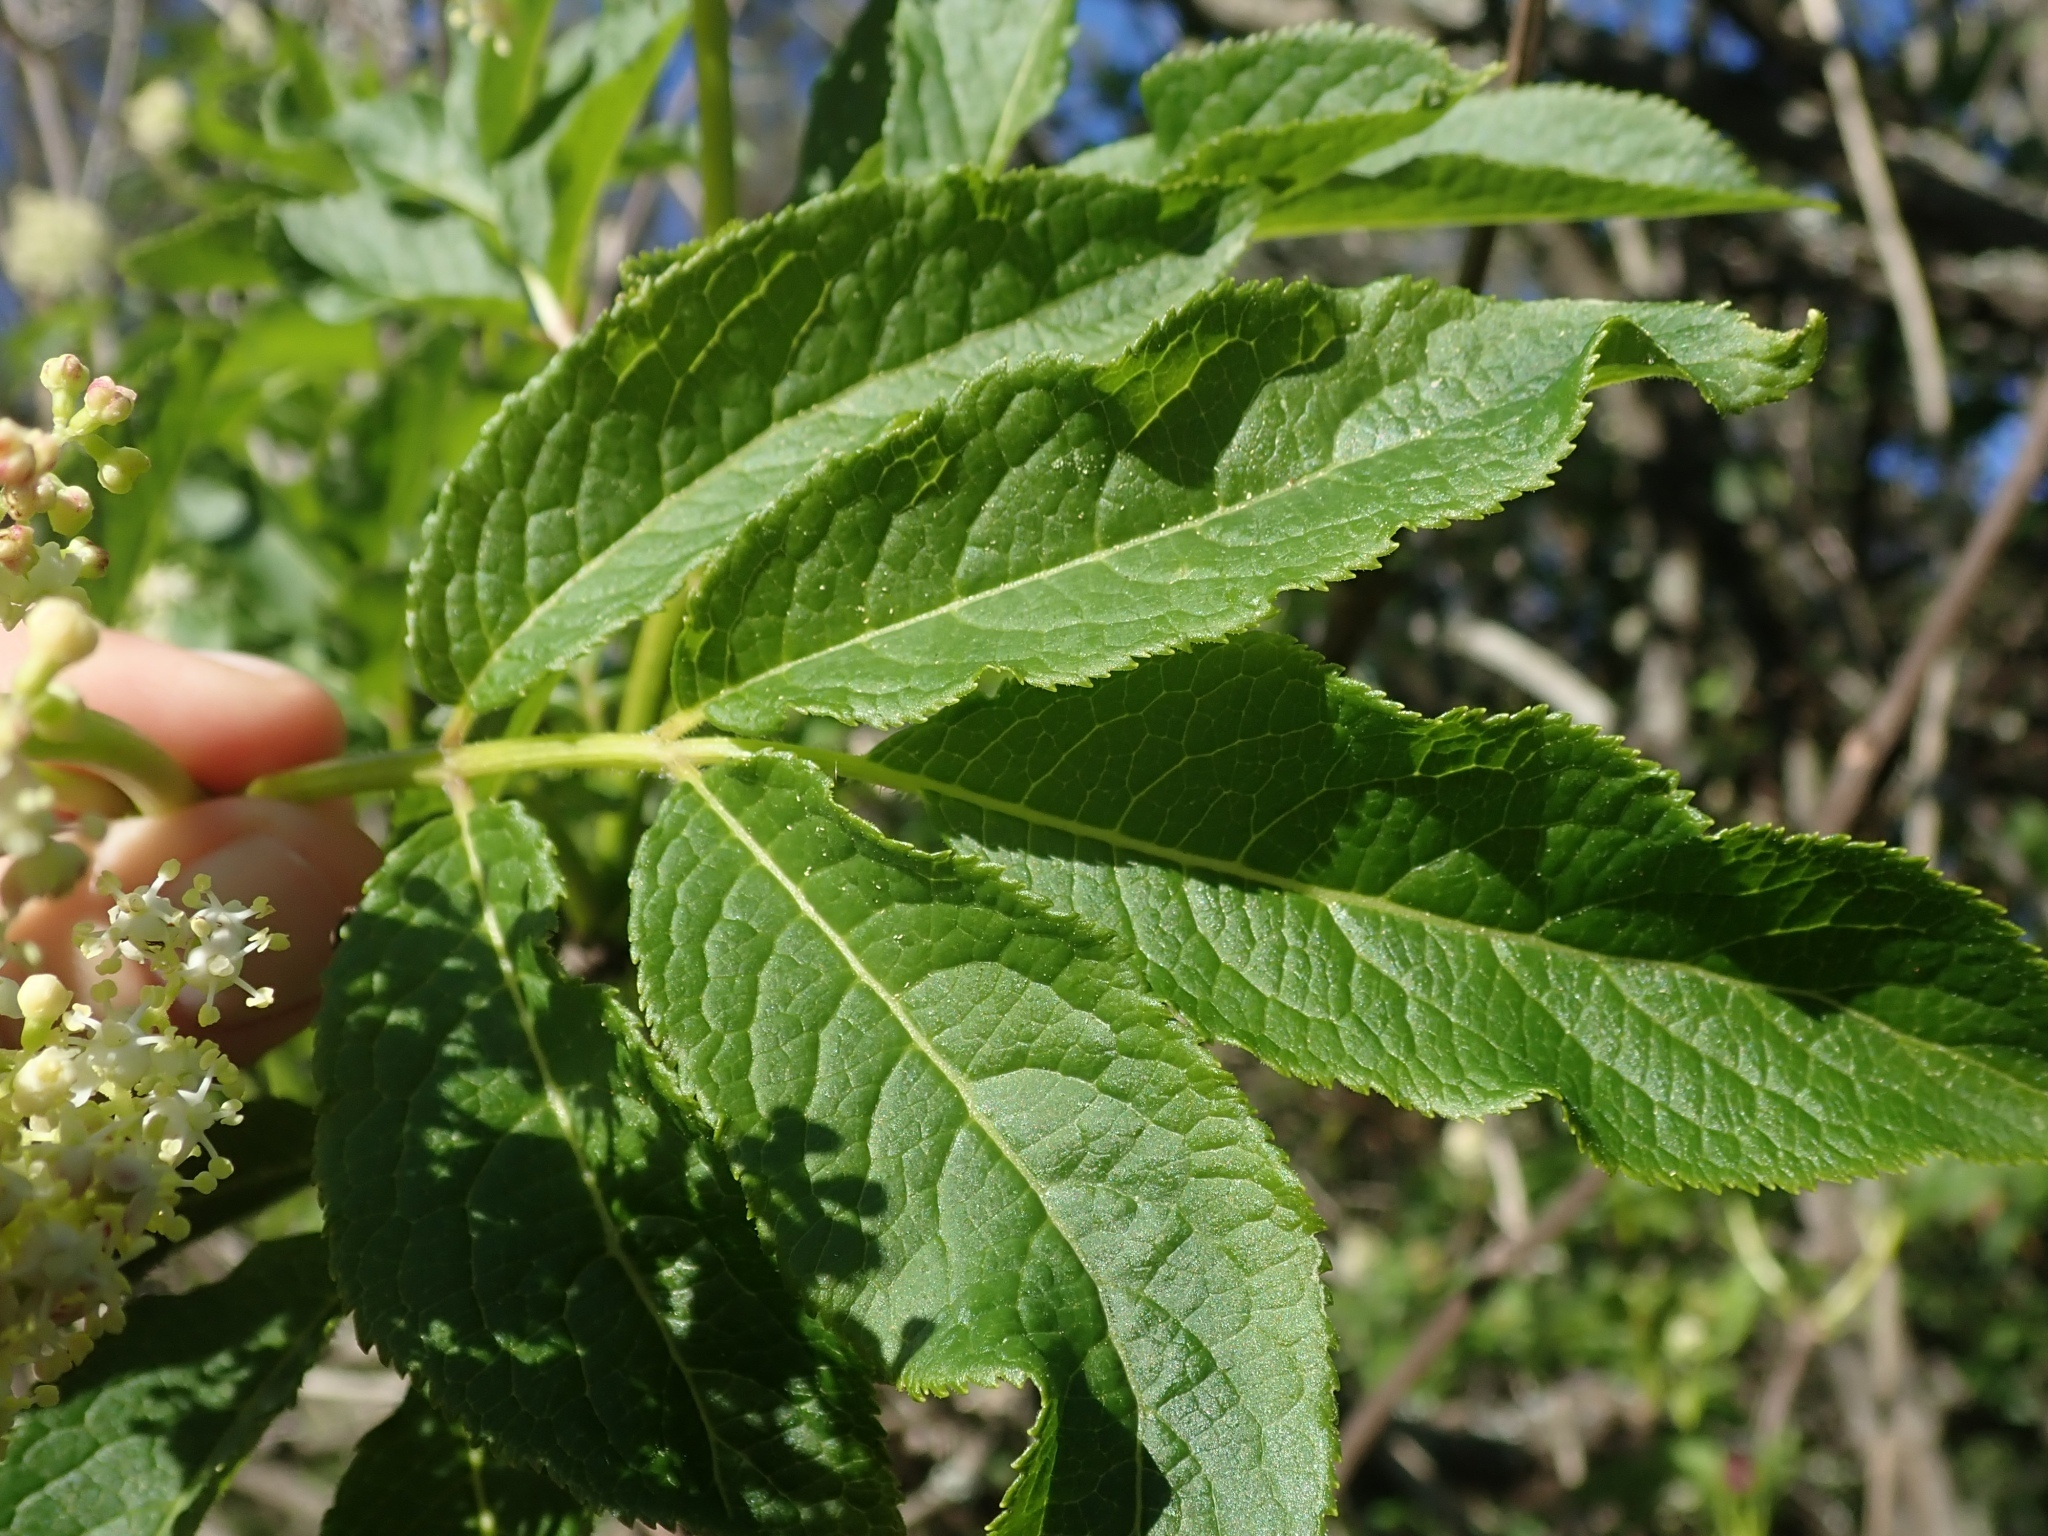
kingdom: Plantae
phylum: Tracheophyta
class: Magnoliopsida
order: Dipsacales
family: Viburnaceae
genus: Sambucus
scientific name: Sambucus racemosa
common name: Red-berried elder
